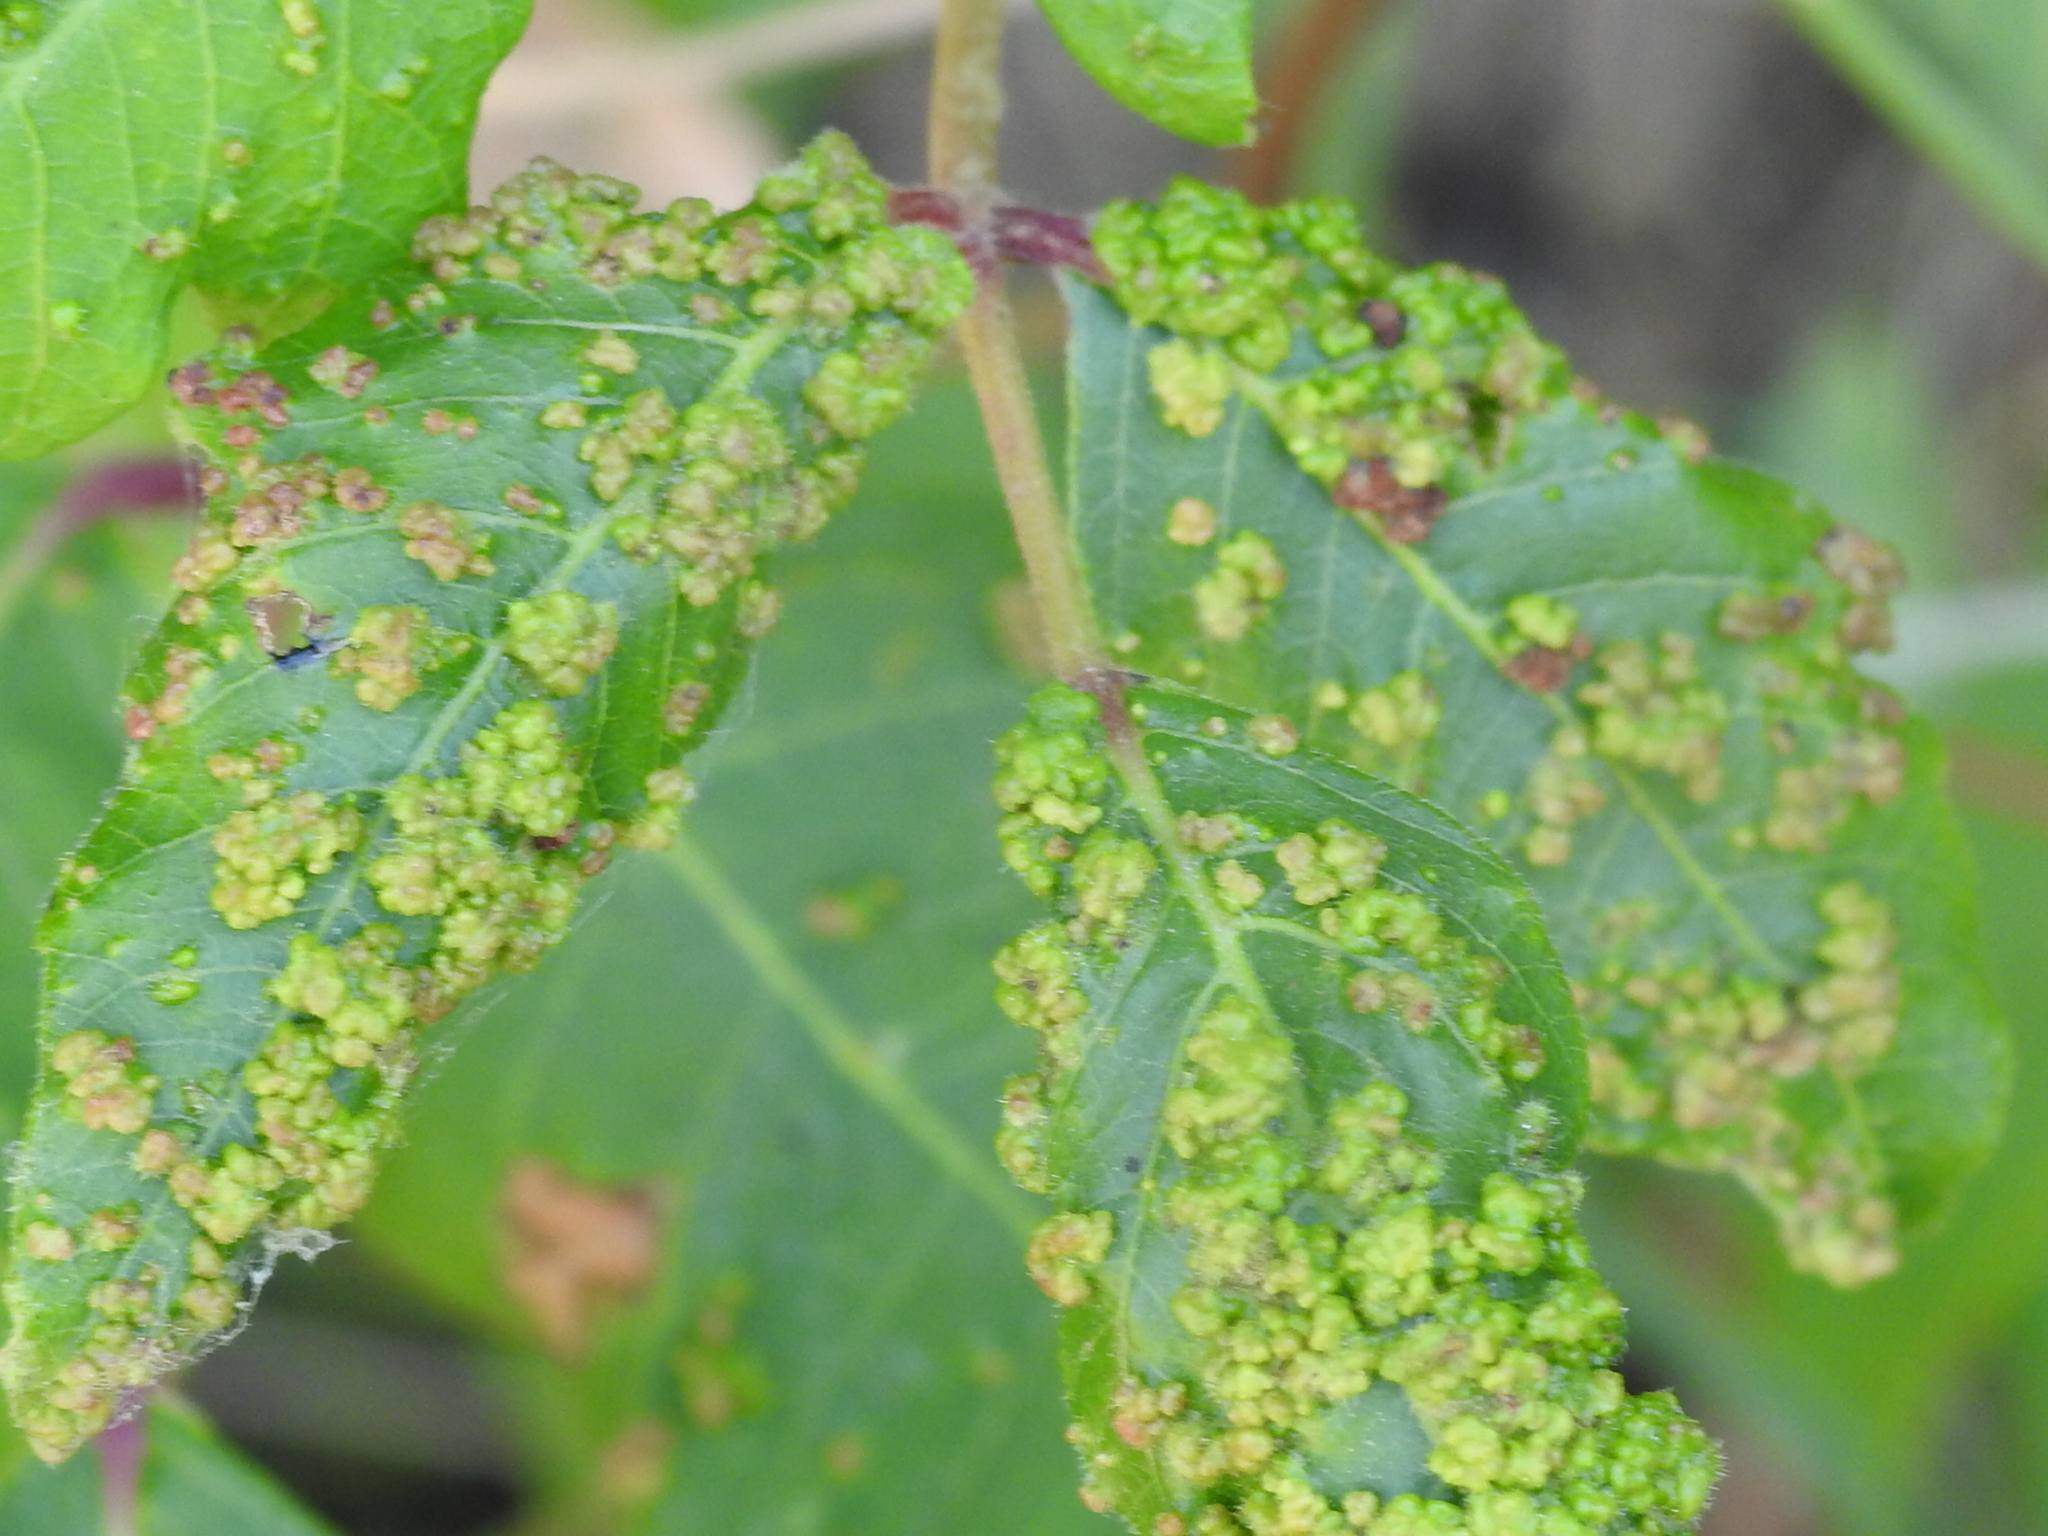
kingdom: Animalia
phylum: Arthropoda
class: Arachnida
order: Trombidiformes
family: Eriophyidae
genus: Aculops
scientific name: Aculops
